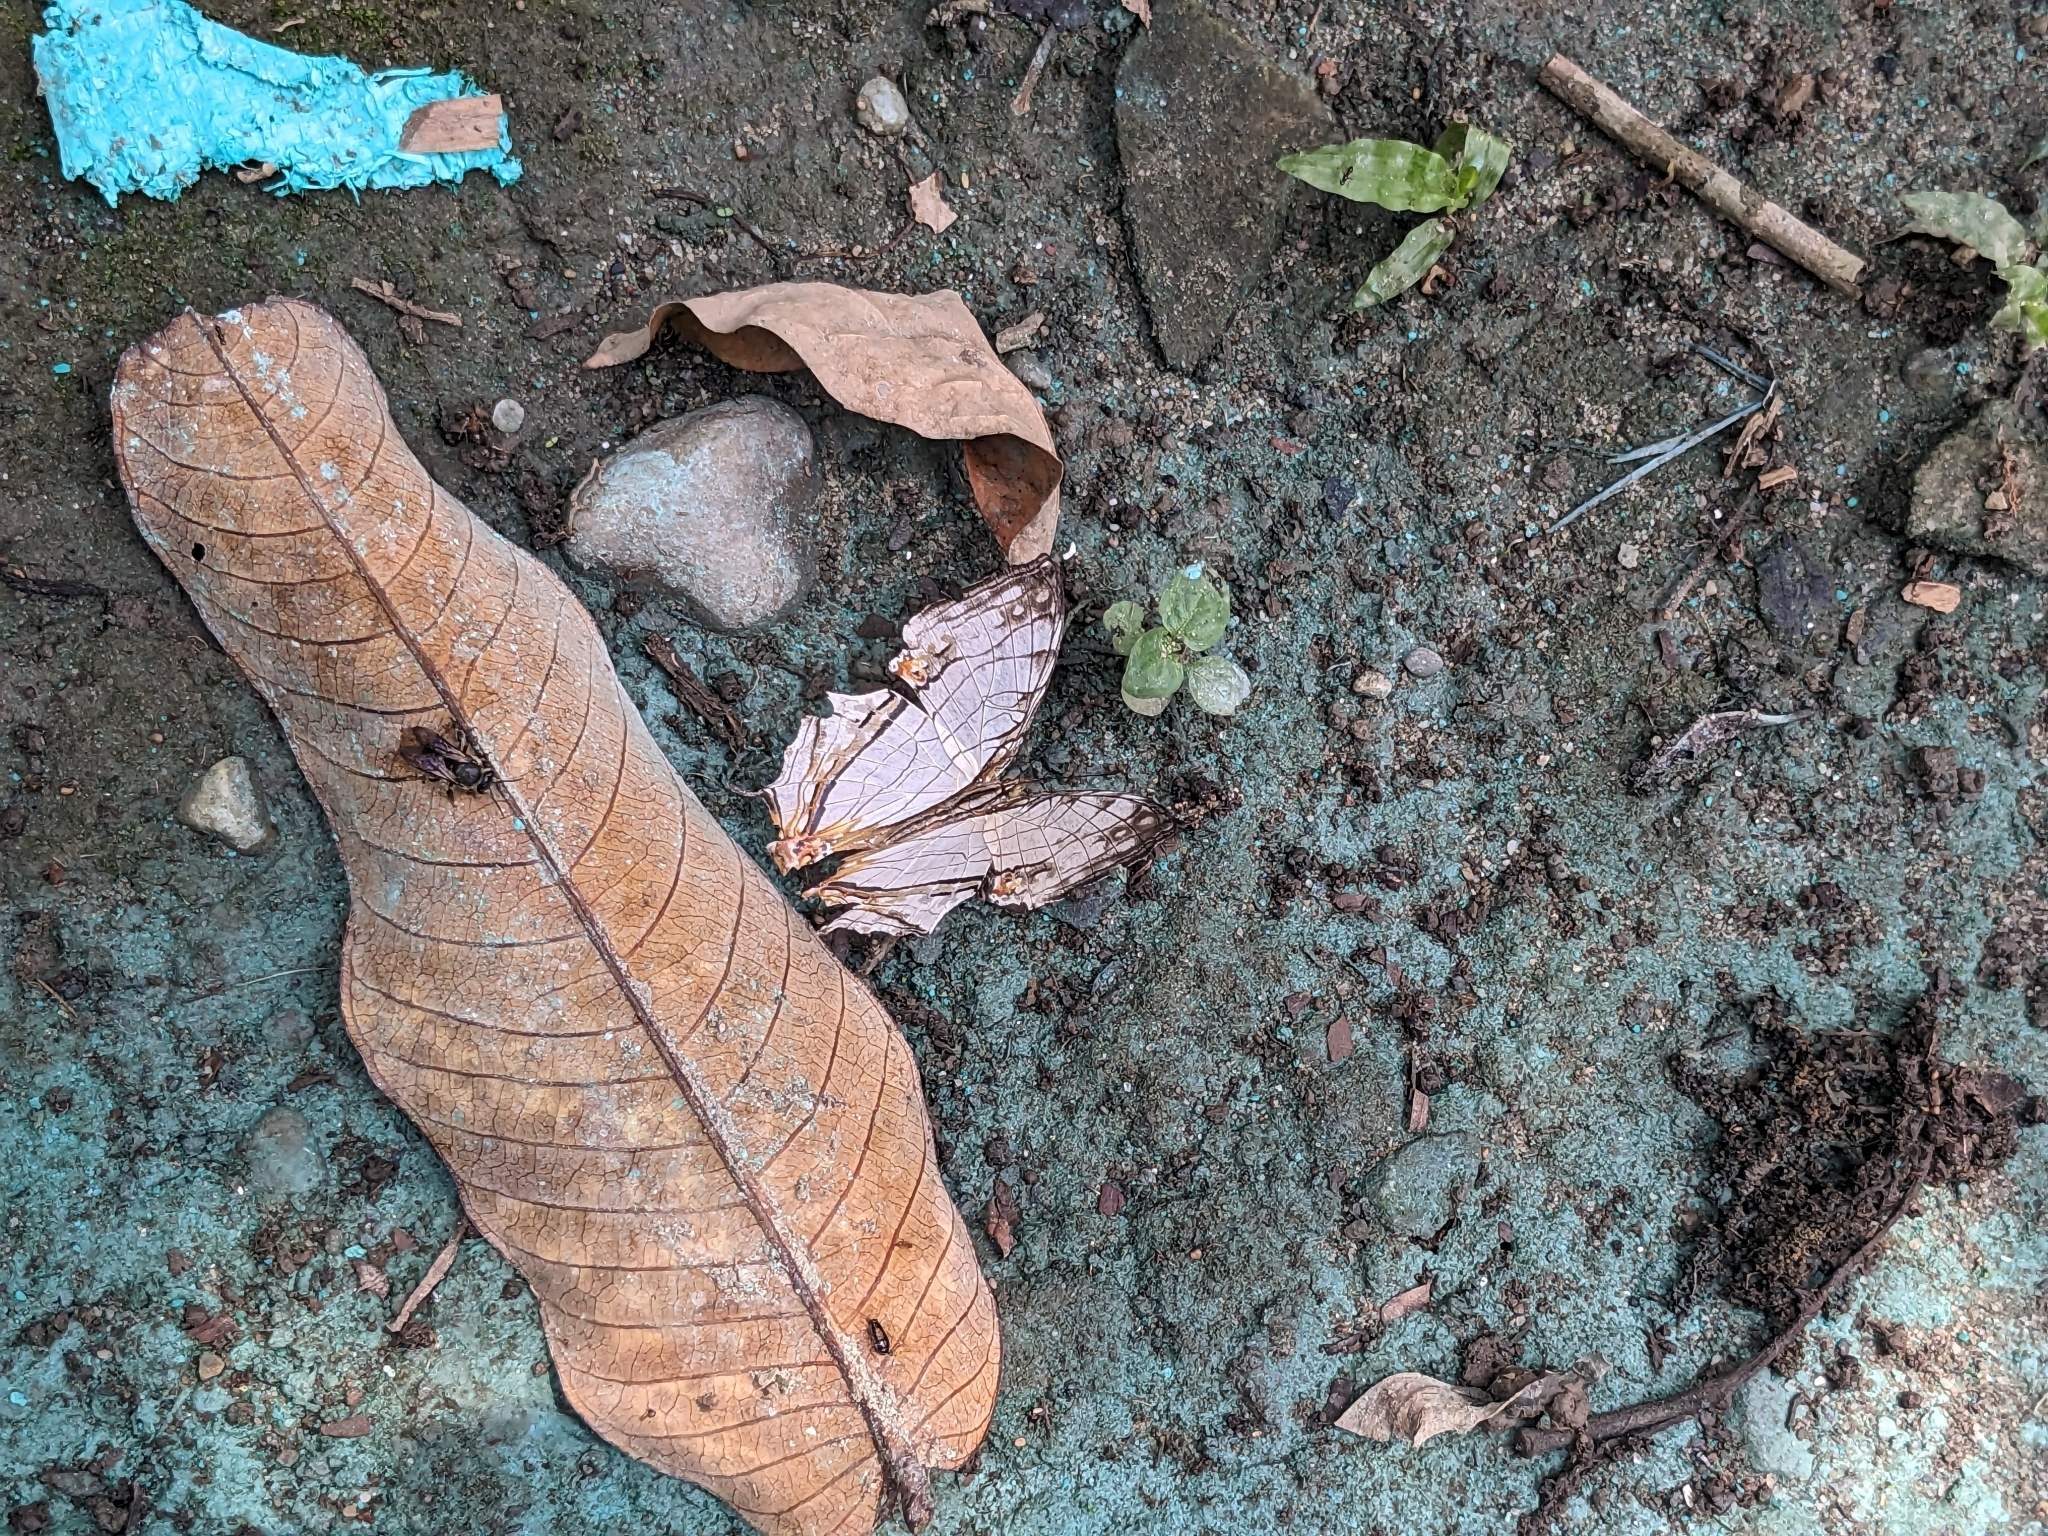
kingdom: Animalia
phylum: Arthropoda
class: Insecta
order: Lepidoptera
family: Nymphalidae
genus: Cyrestis
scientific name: Cyrestis thyodamas
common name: Common mapwing
